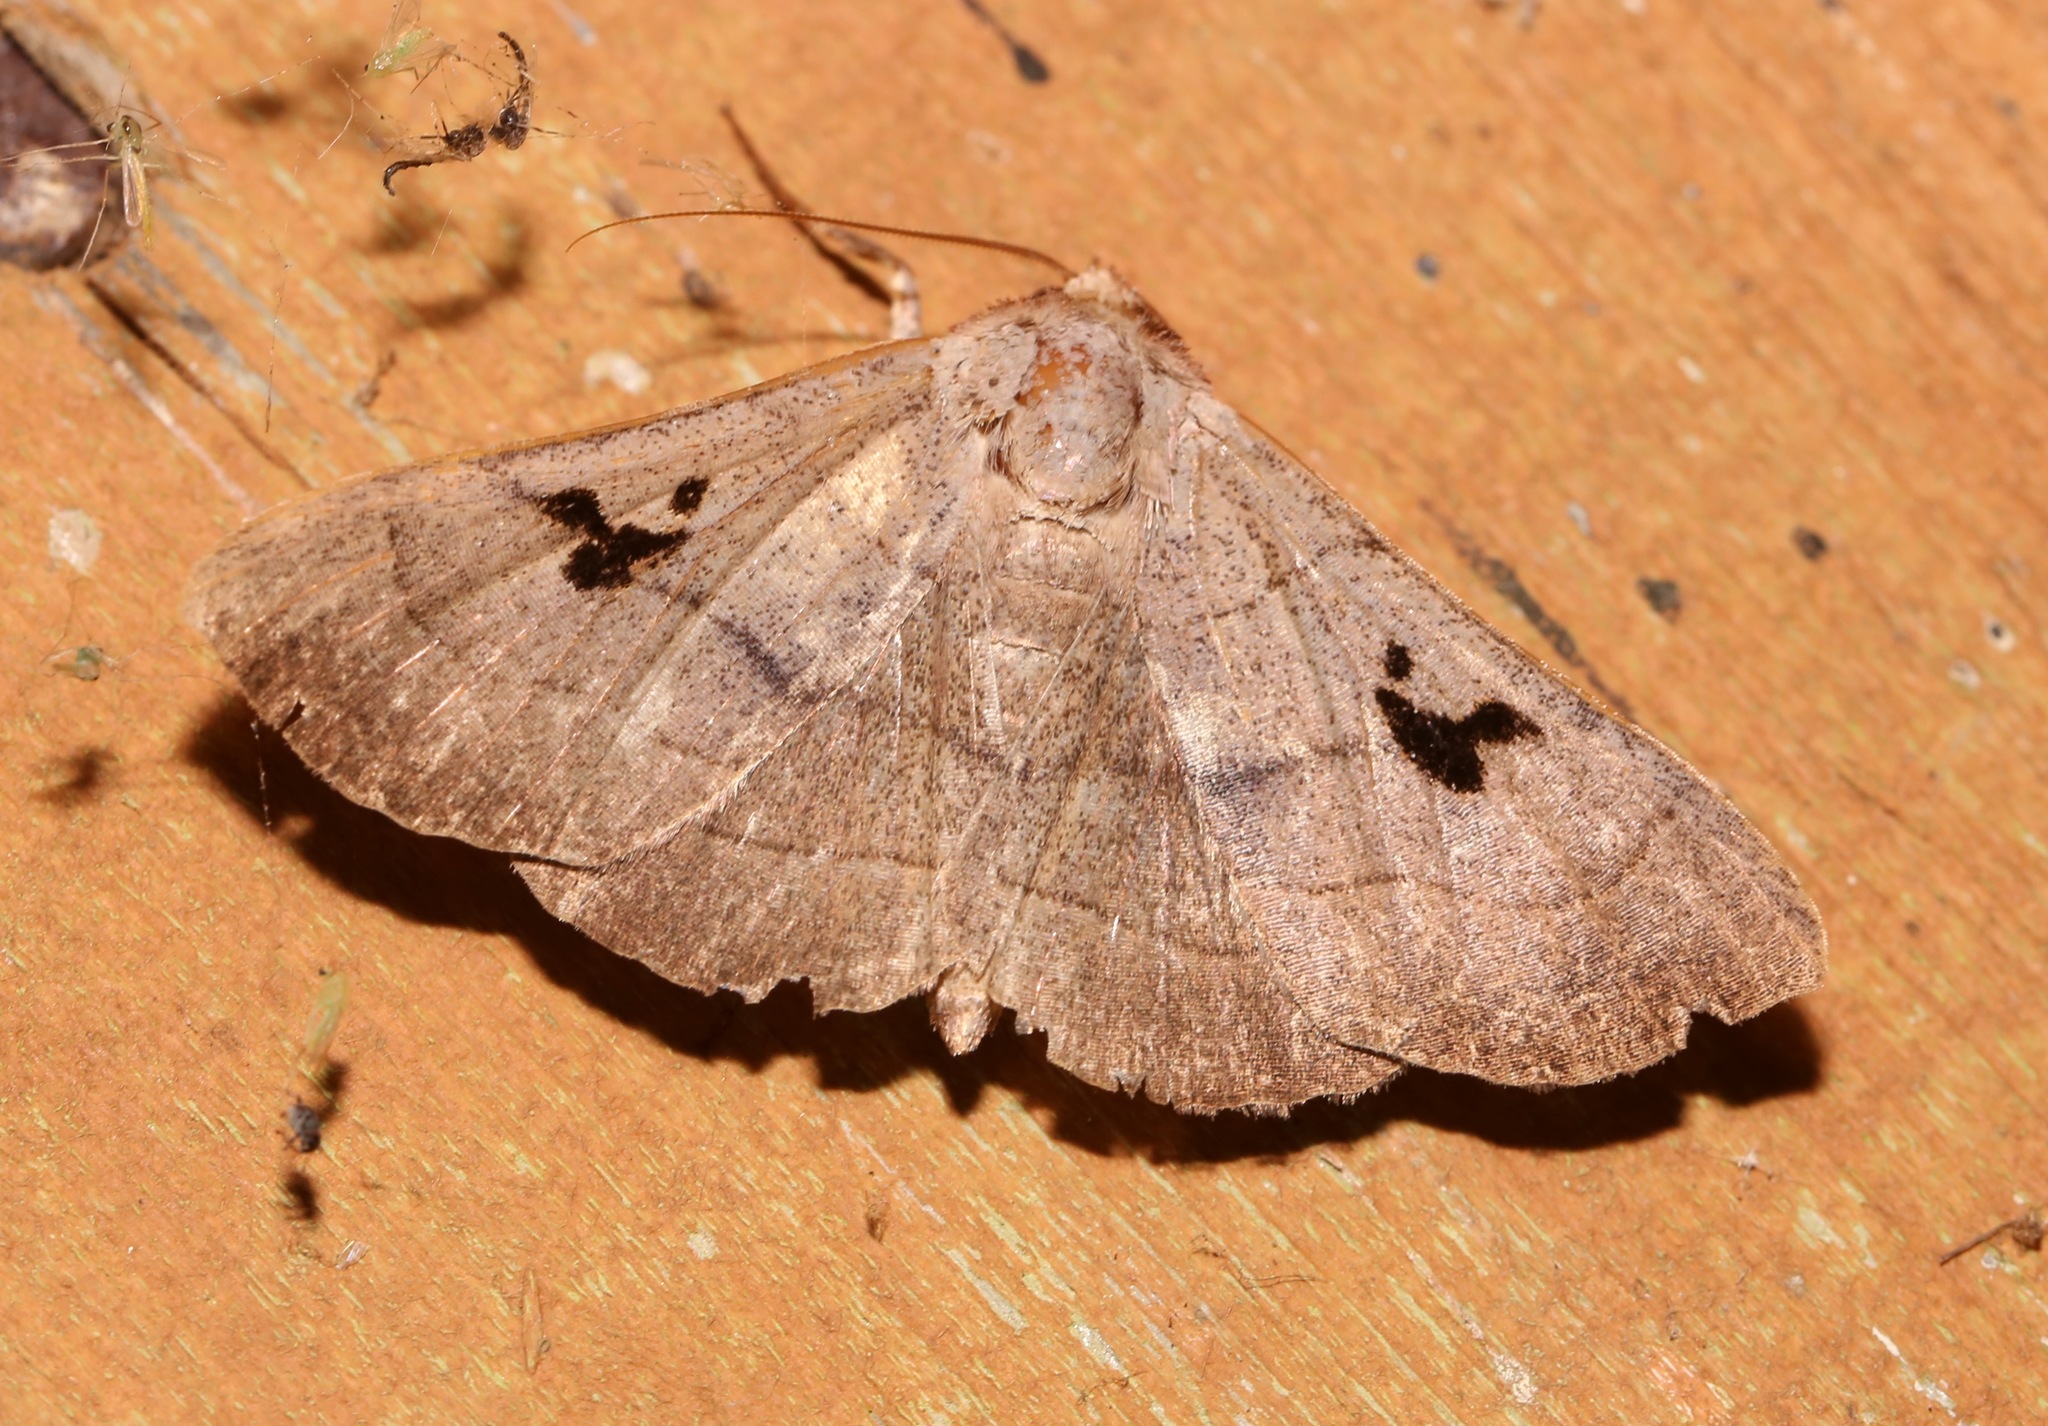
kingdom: Animalia
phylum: Arthropoda
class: Insecta
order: Lepidoptera
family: Erebidae
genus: Panopoda
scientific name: Panopoda carneicosta
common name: Brown panopoda moth
